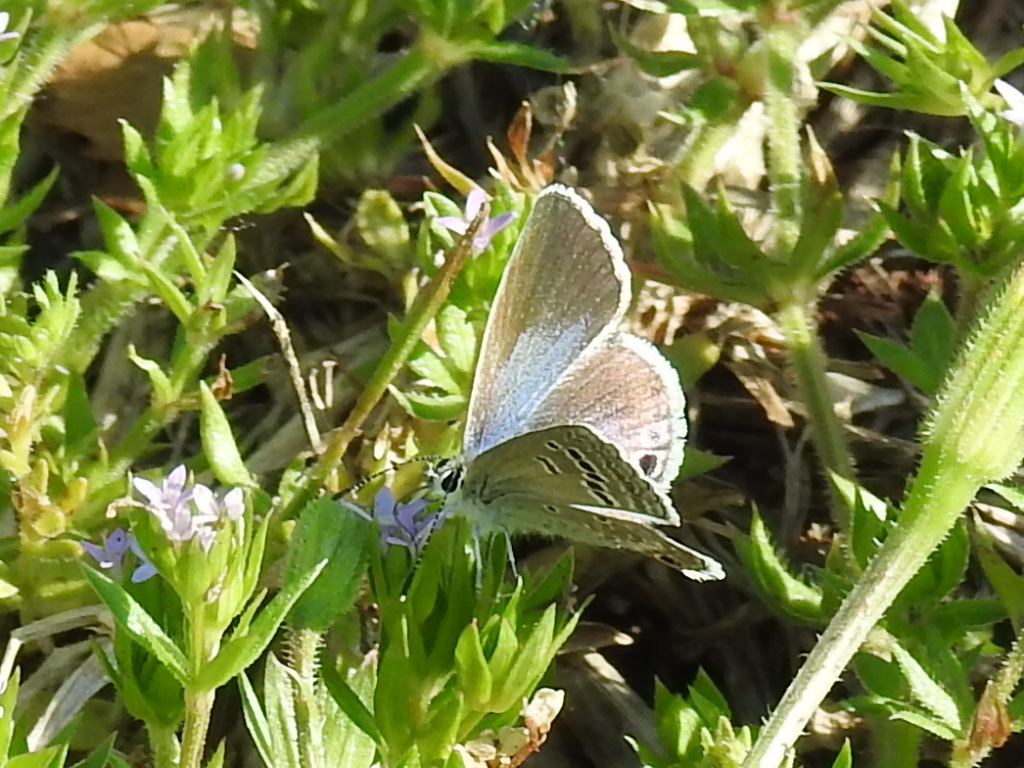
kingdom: Animalia
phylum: Arthropoda
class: Insecta
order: Lepidoptera
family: Lycaenidae
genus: Echinargus
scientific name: Echinargus isola
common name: Reakirt's blue
